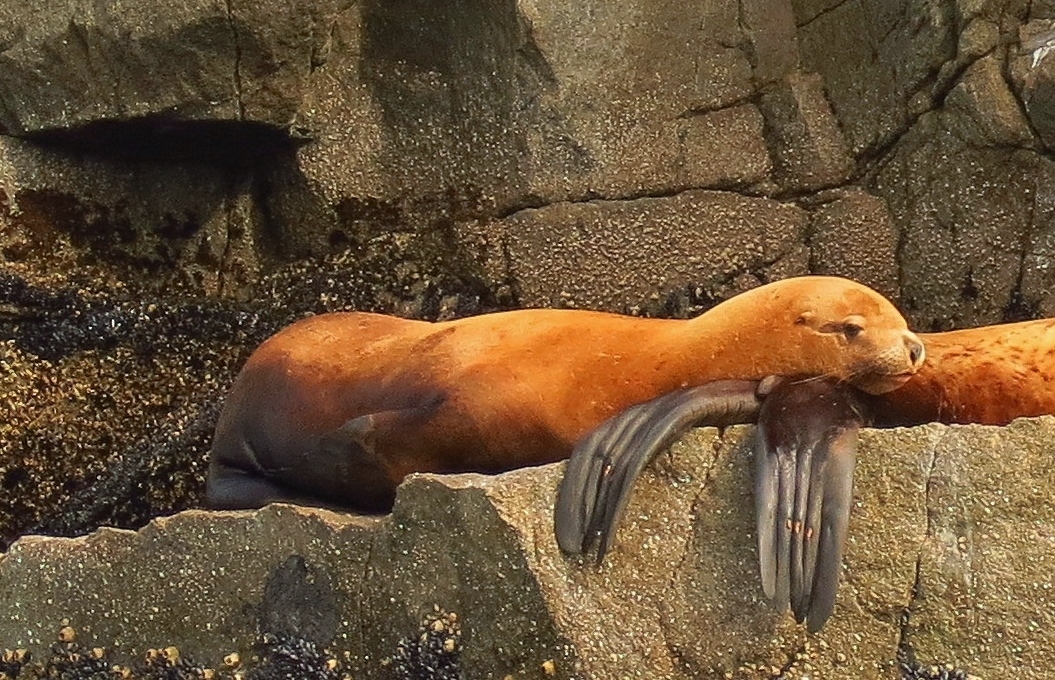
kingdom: Animalia
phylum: Chordata
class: Mammalia
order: Carnivora
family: Otariidae
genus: Eumetopias
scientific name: Eumetopias jubatus
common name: Steller sea lion
